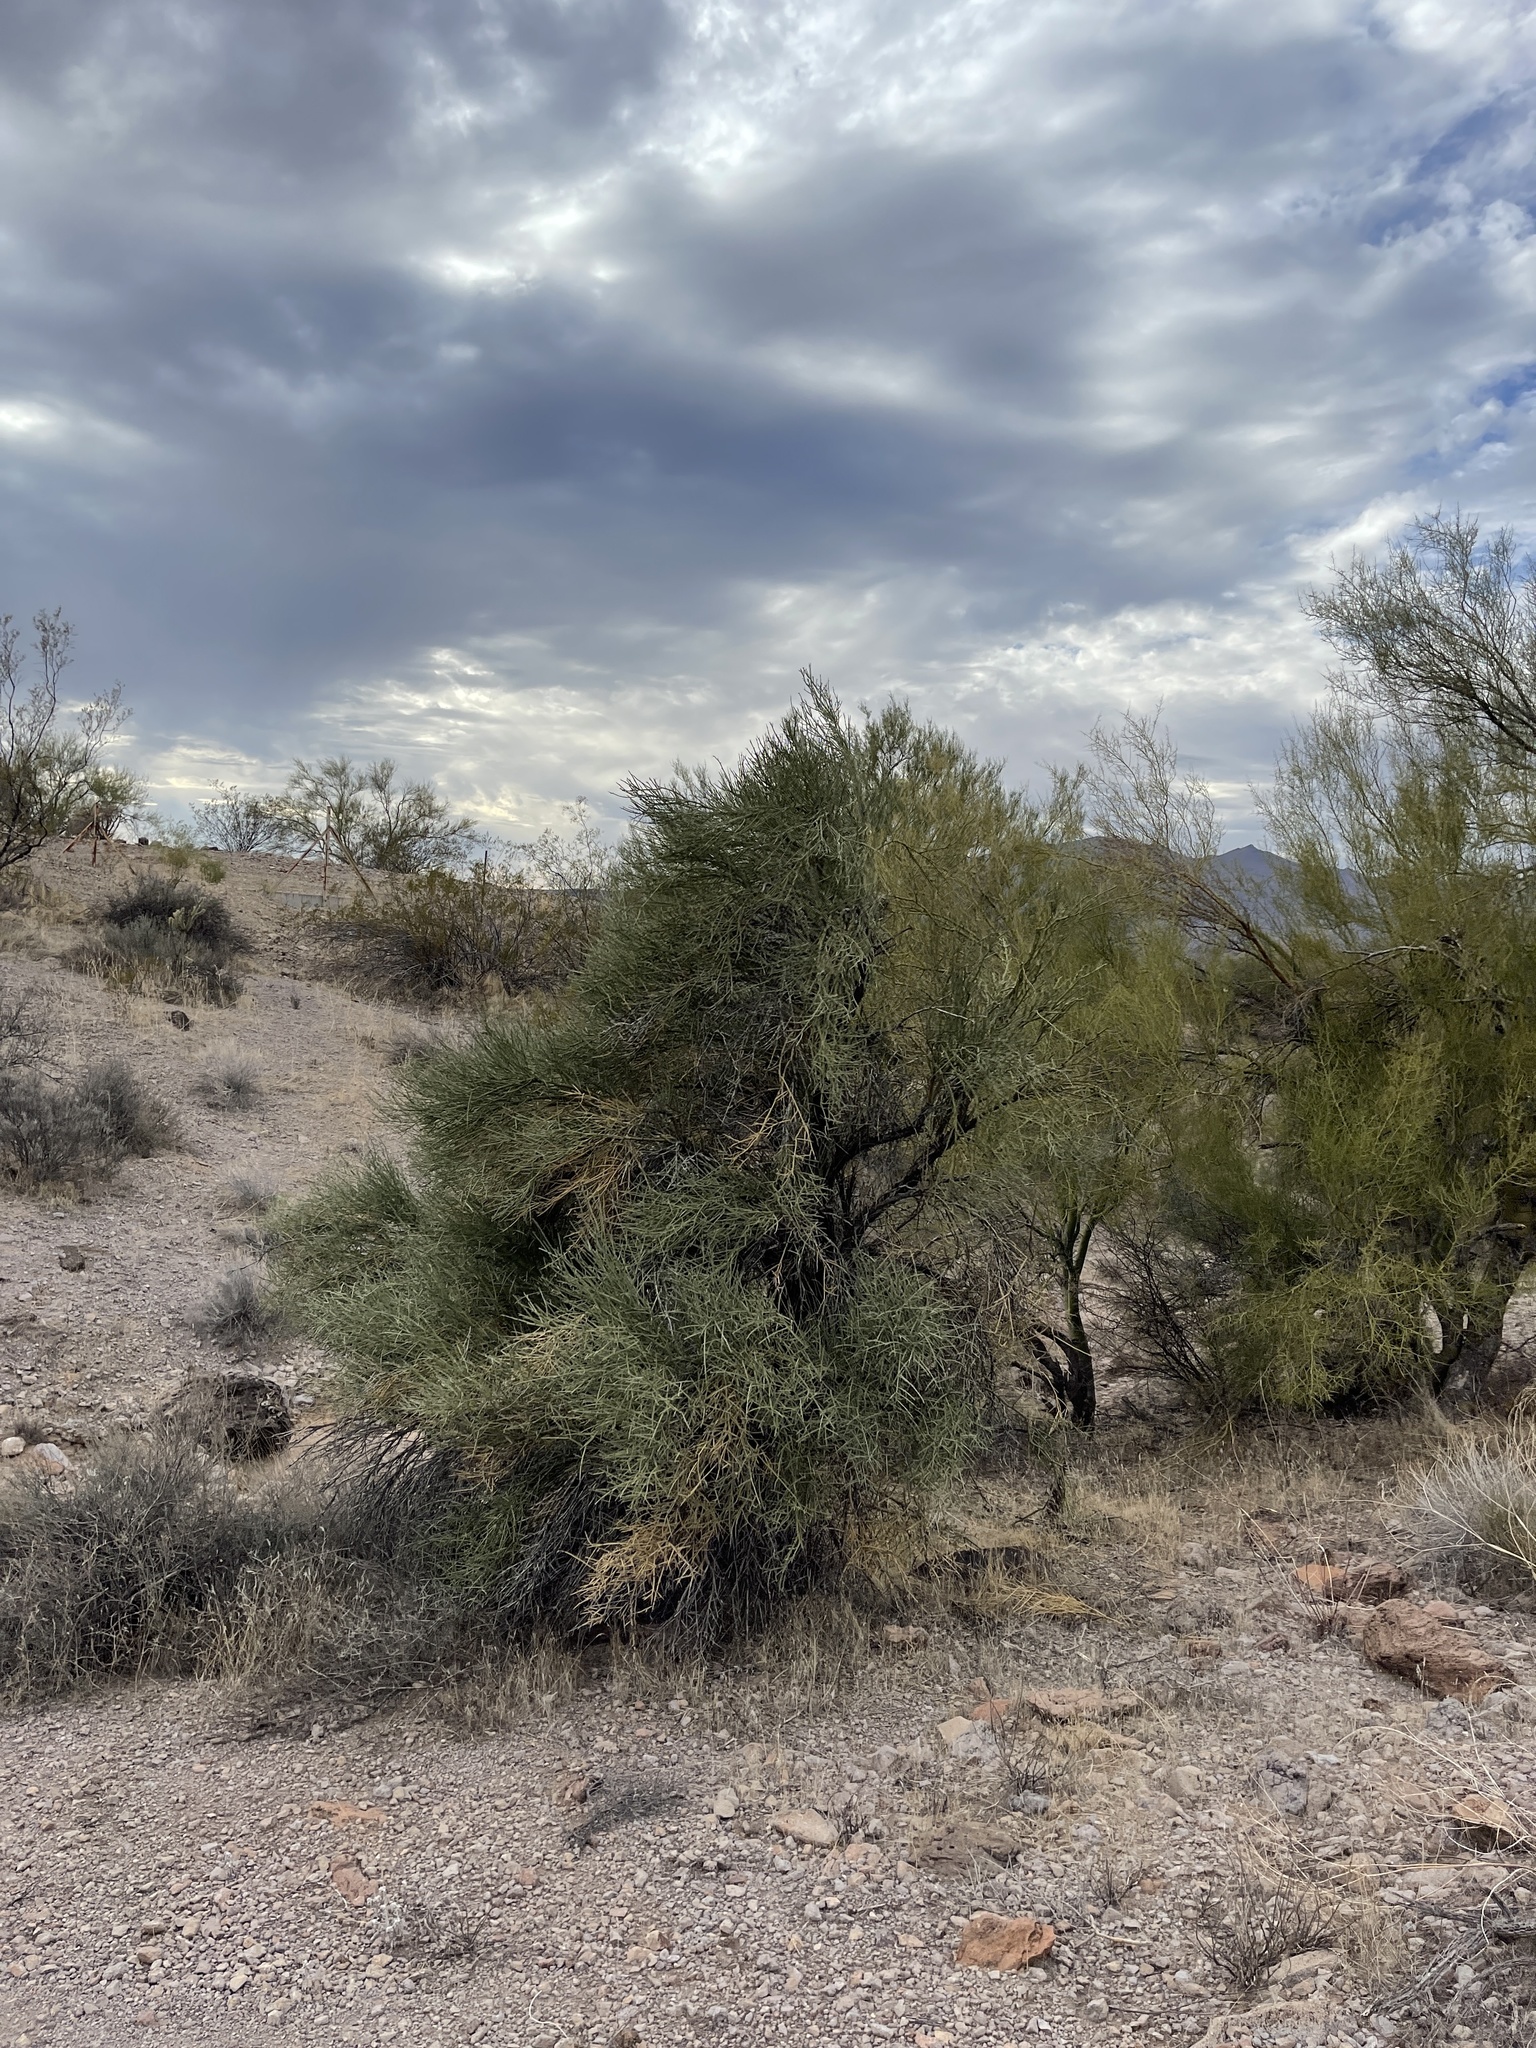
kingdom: Plantae
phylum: Tracheophyta
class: Magnoliopsida
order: Celastrales
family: Celastraceae
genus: Canotia
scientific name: Canotia holacantha
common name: Crucifixion thorns
